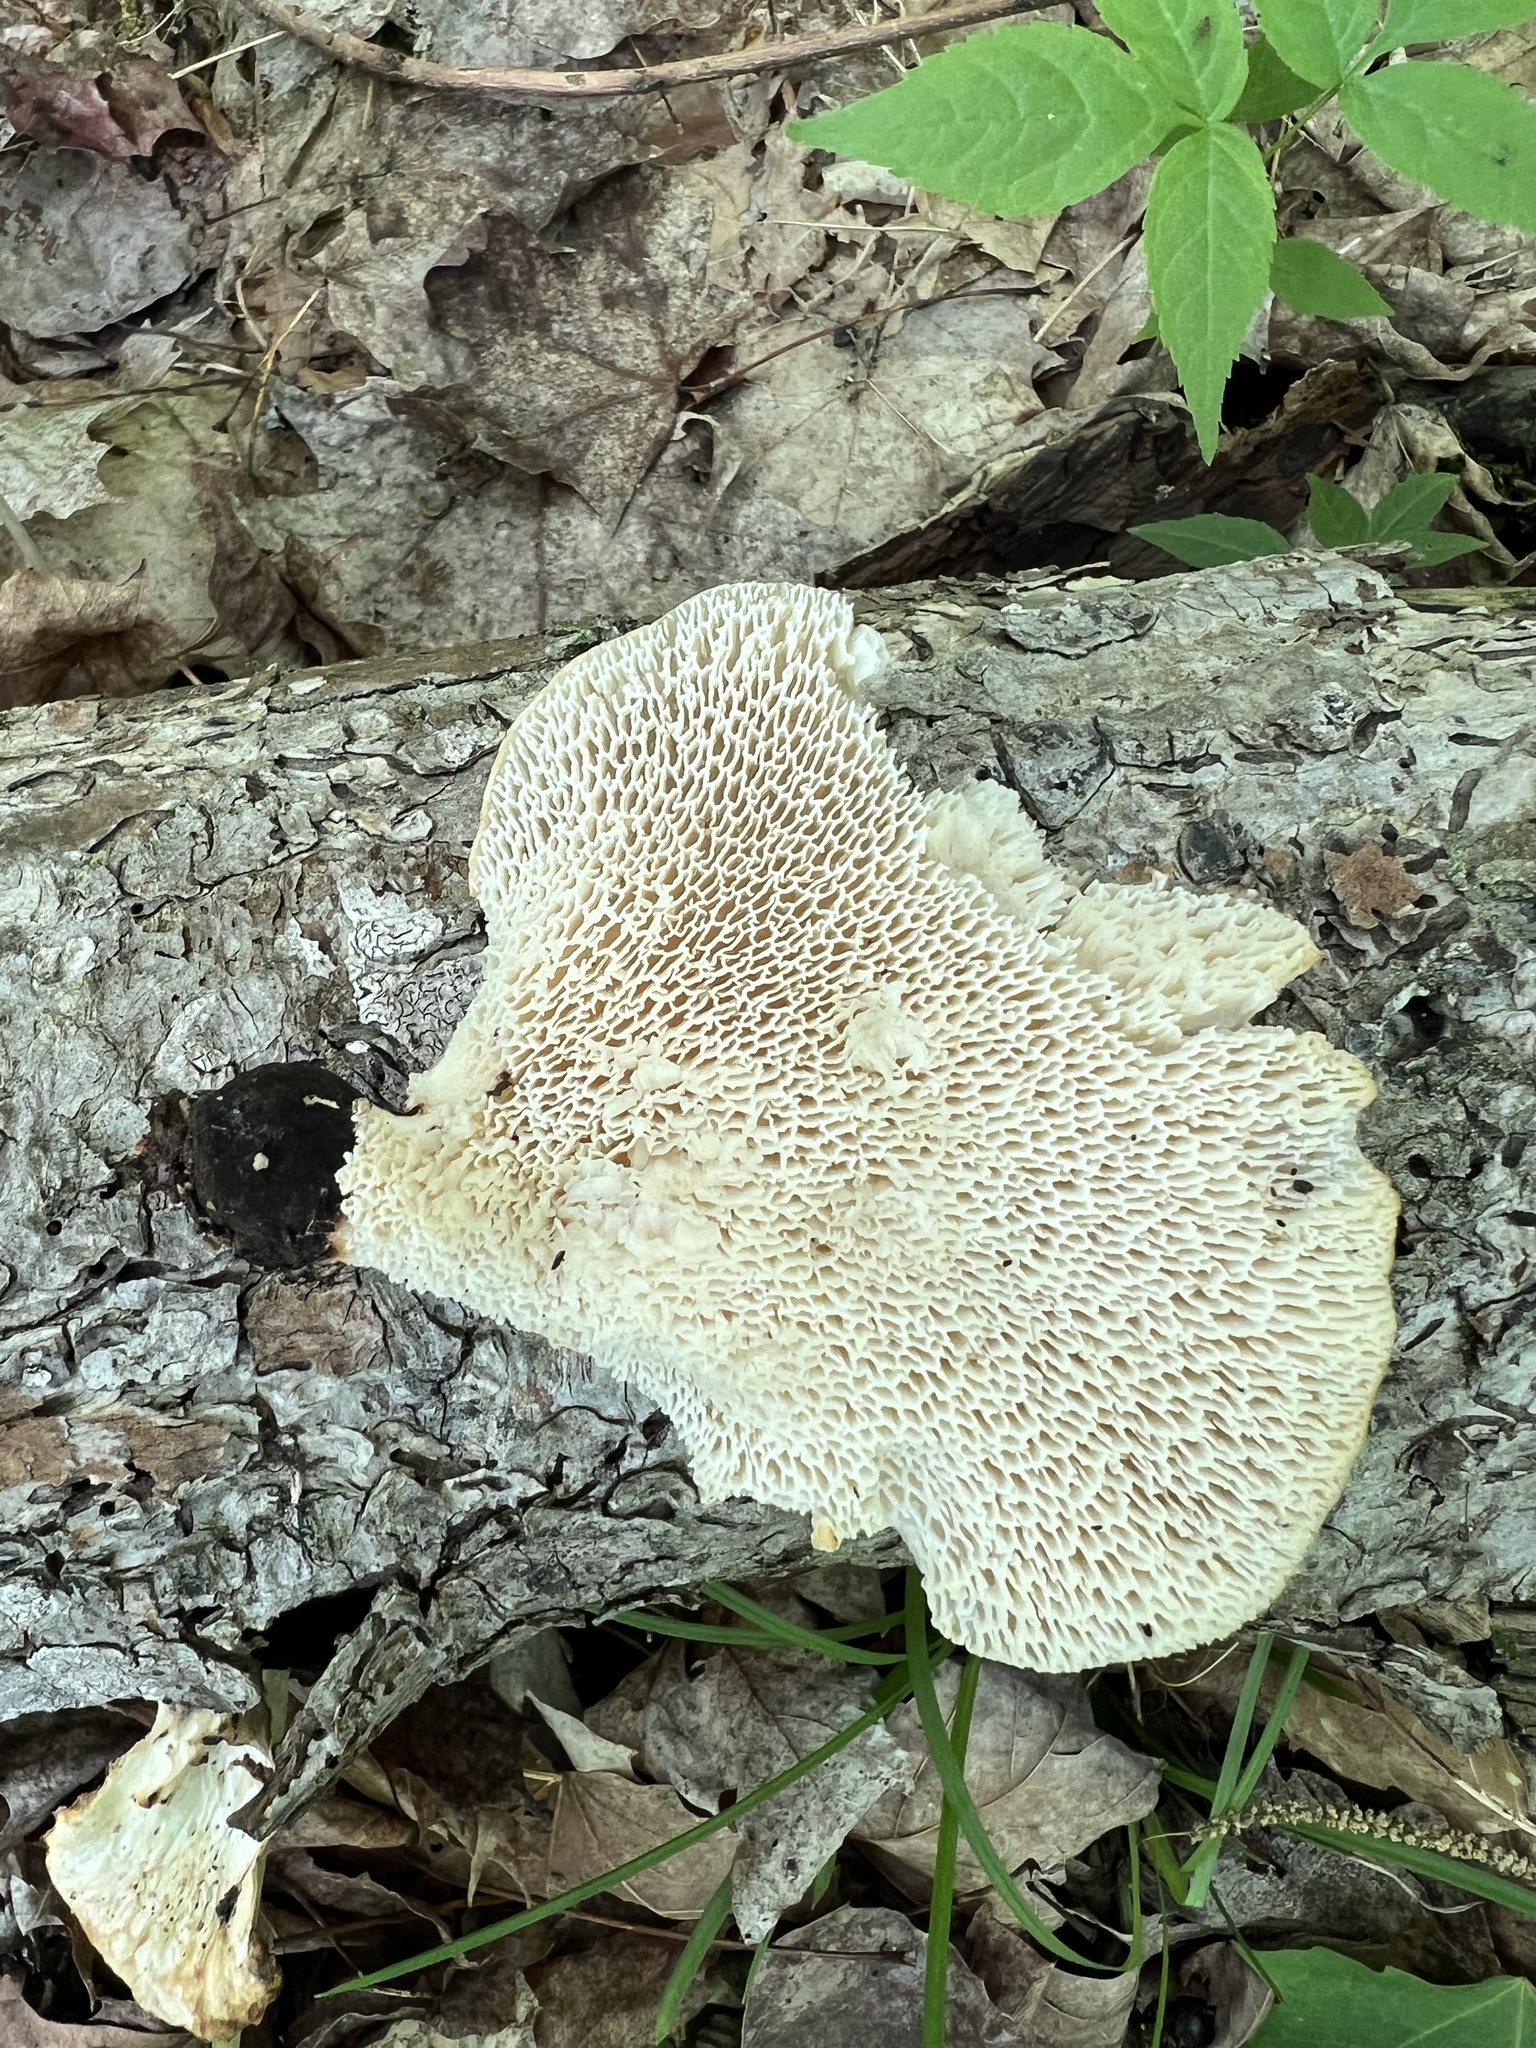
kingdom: Fungi
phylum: Basidiomycota
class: Agaricomycetes
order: Polyporales
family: Polyporaceae
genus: Cerioporus
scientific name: Cerioporus squamosus
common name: Dryad's saddle
